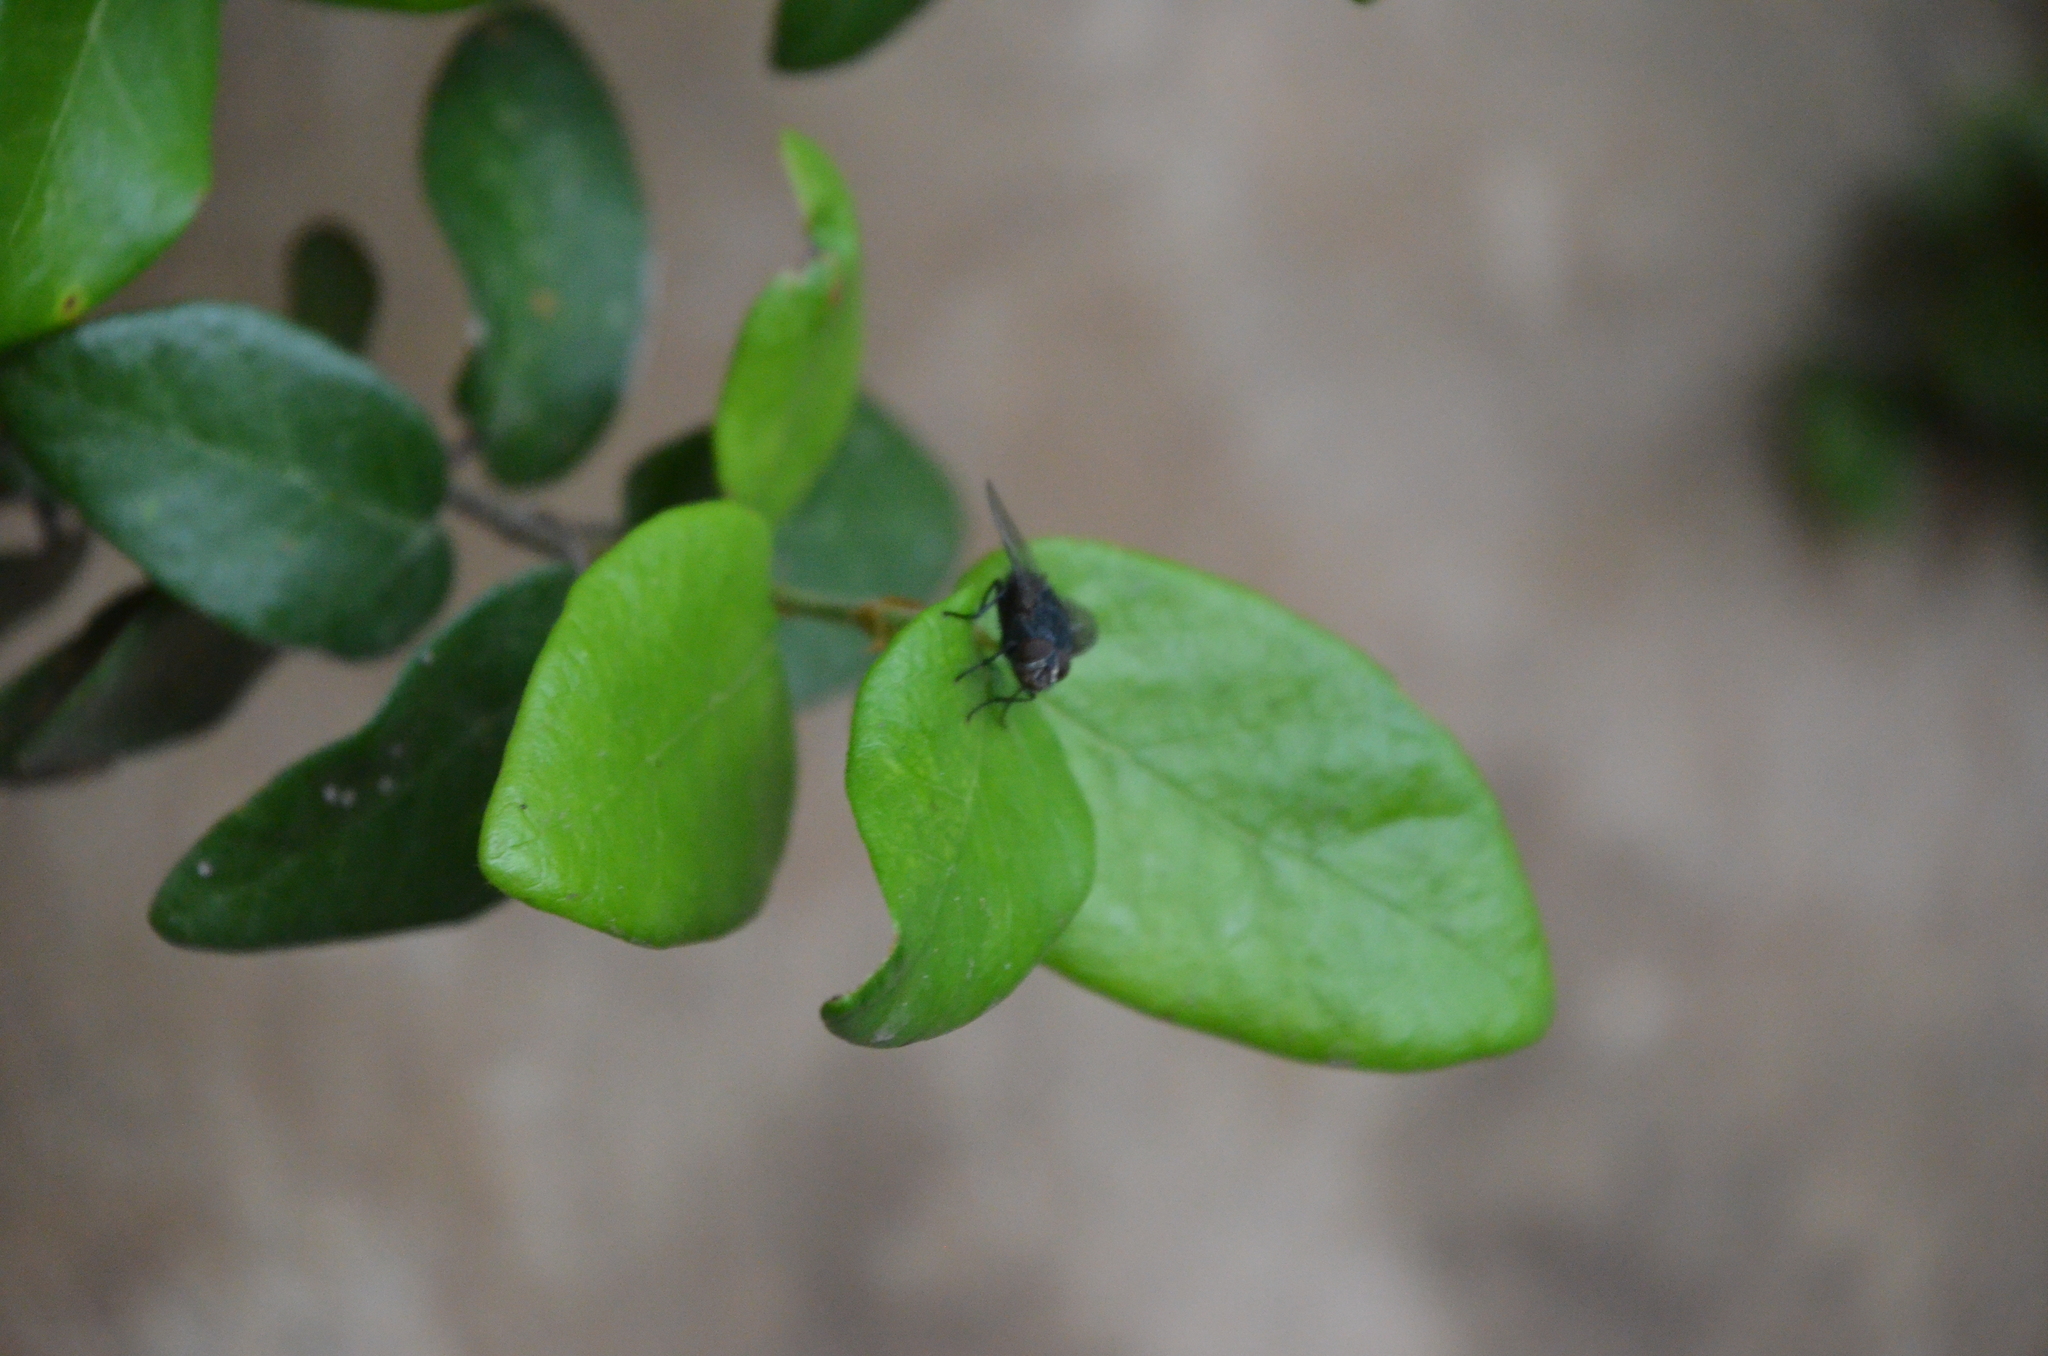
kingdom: Animalia
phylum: Arthropoda
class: Insecta
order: Diptera
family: Calliphoridae
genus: Calliphora
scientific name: Calliphora vicina
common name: Common blow flie
